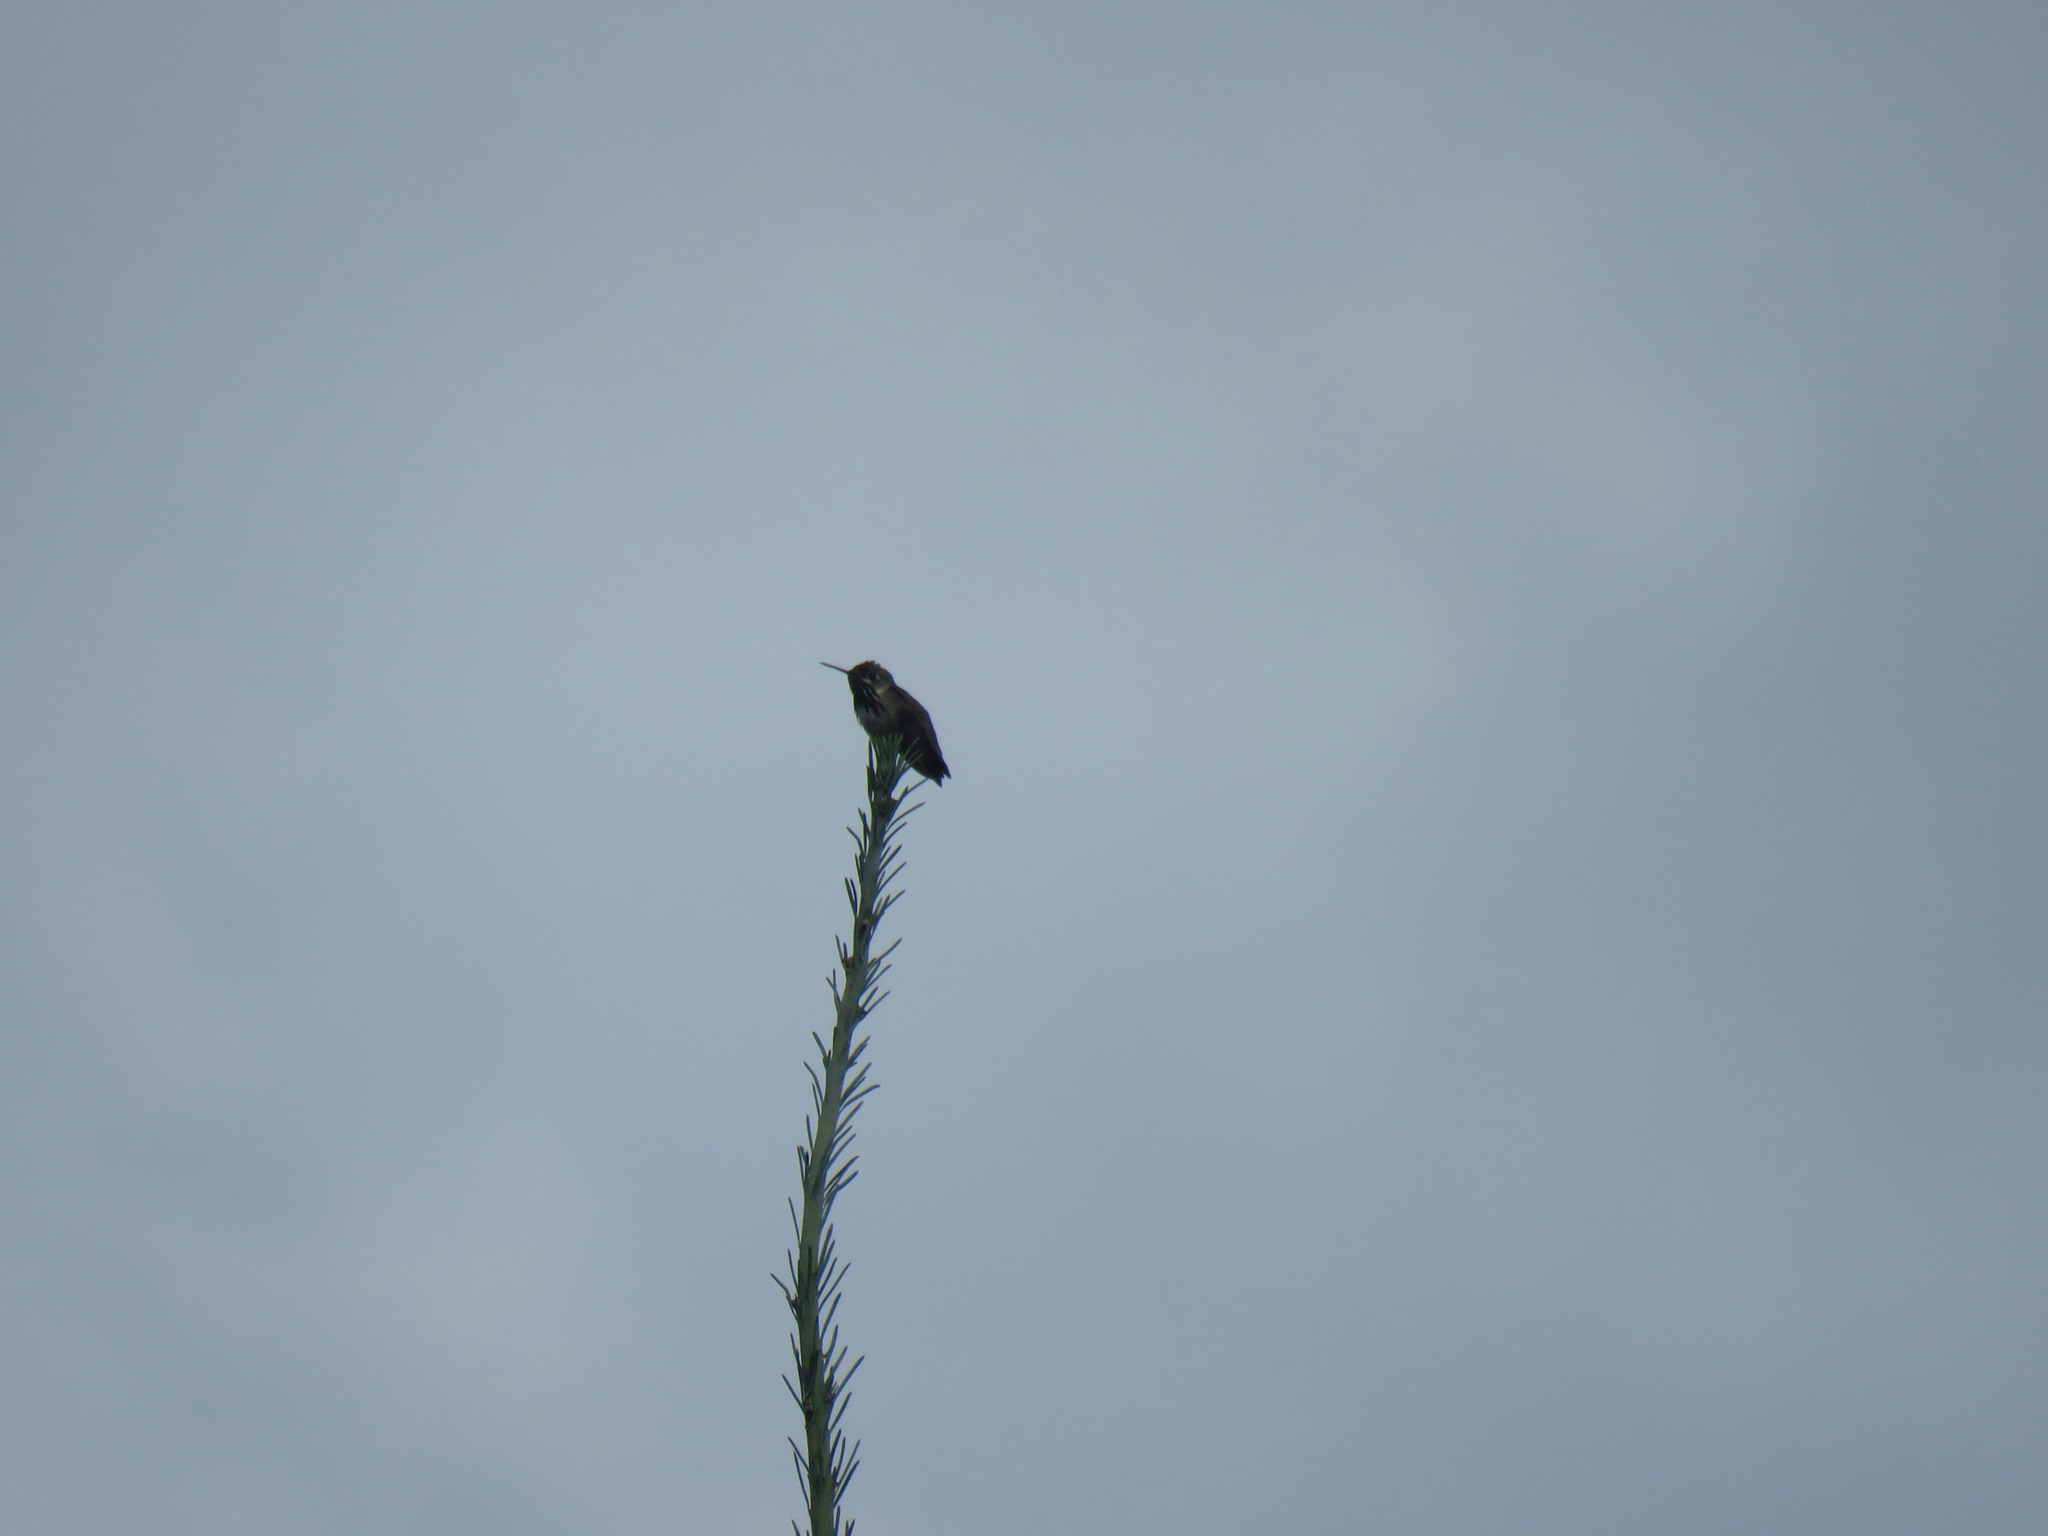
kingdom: Animalia
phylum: Chordata
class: Aves
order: Apodiformes
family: Trochilidae
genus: Selasphorus
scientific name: Selasphorus calliope
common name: Calliope hummingbird
